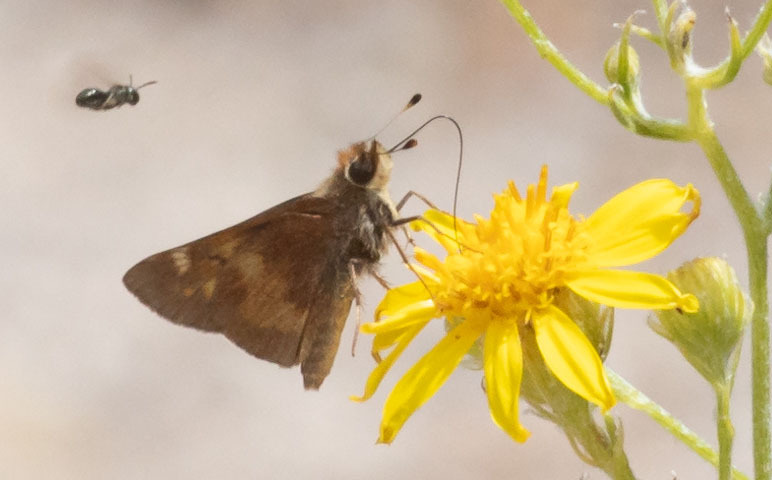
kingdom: Animalia
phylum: Arthropoda
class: Insecta
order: Lepidoptera
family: Hesperiidae
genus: Lon
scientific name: Lon melane
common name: Umber skipper
